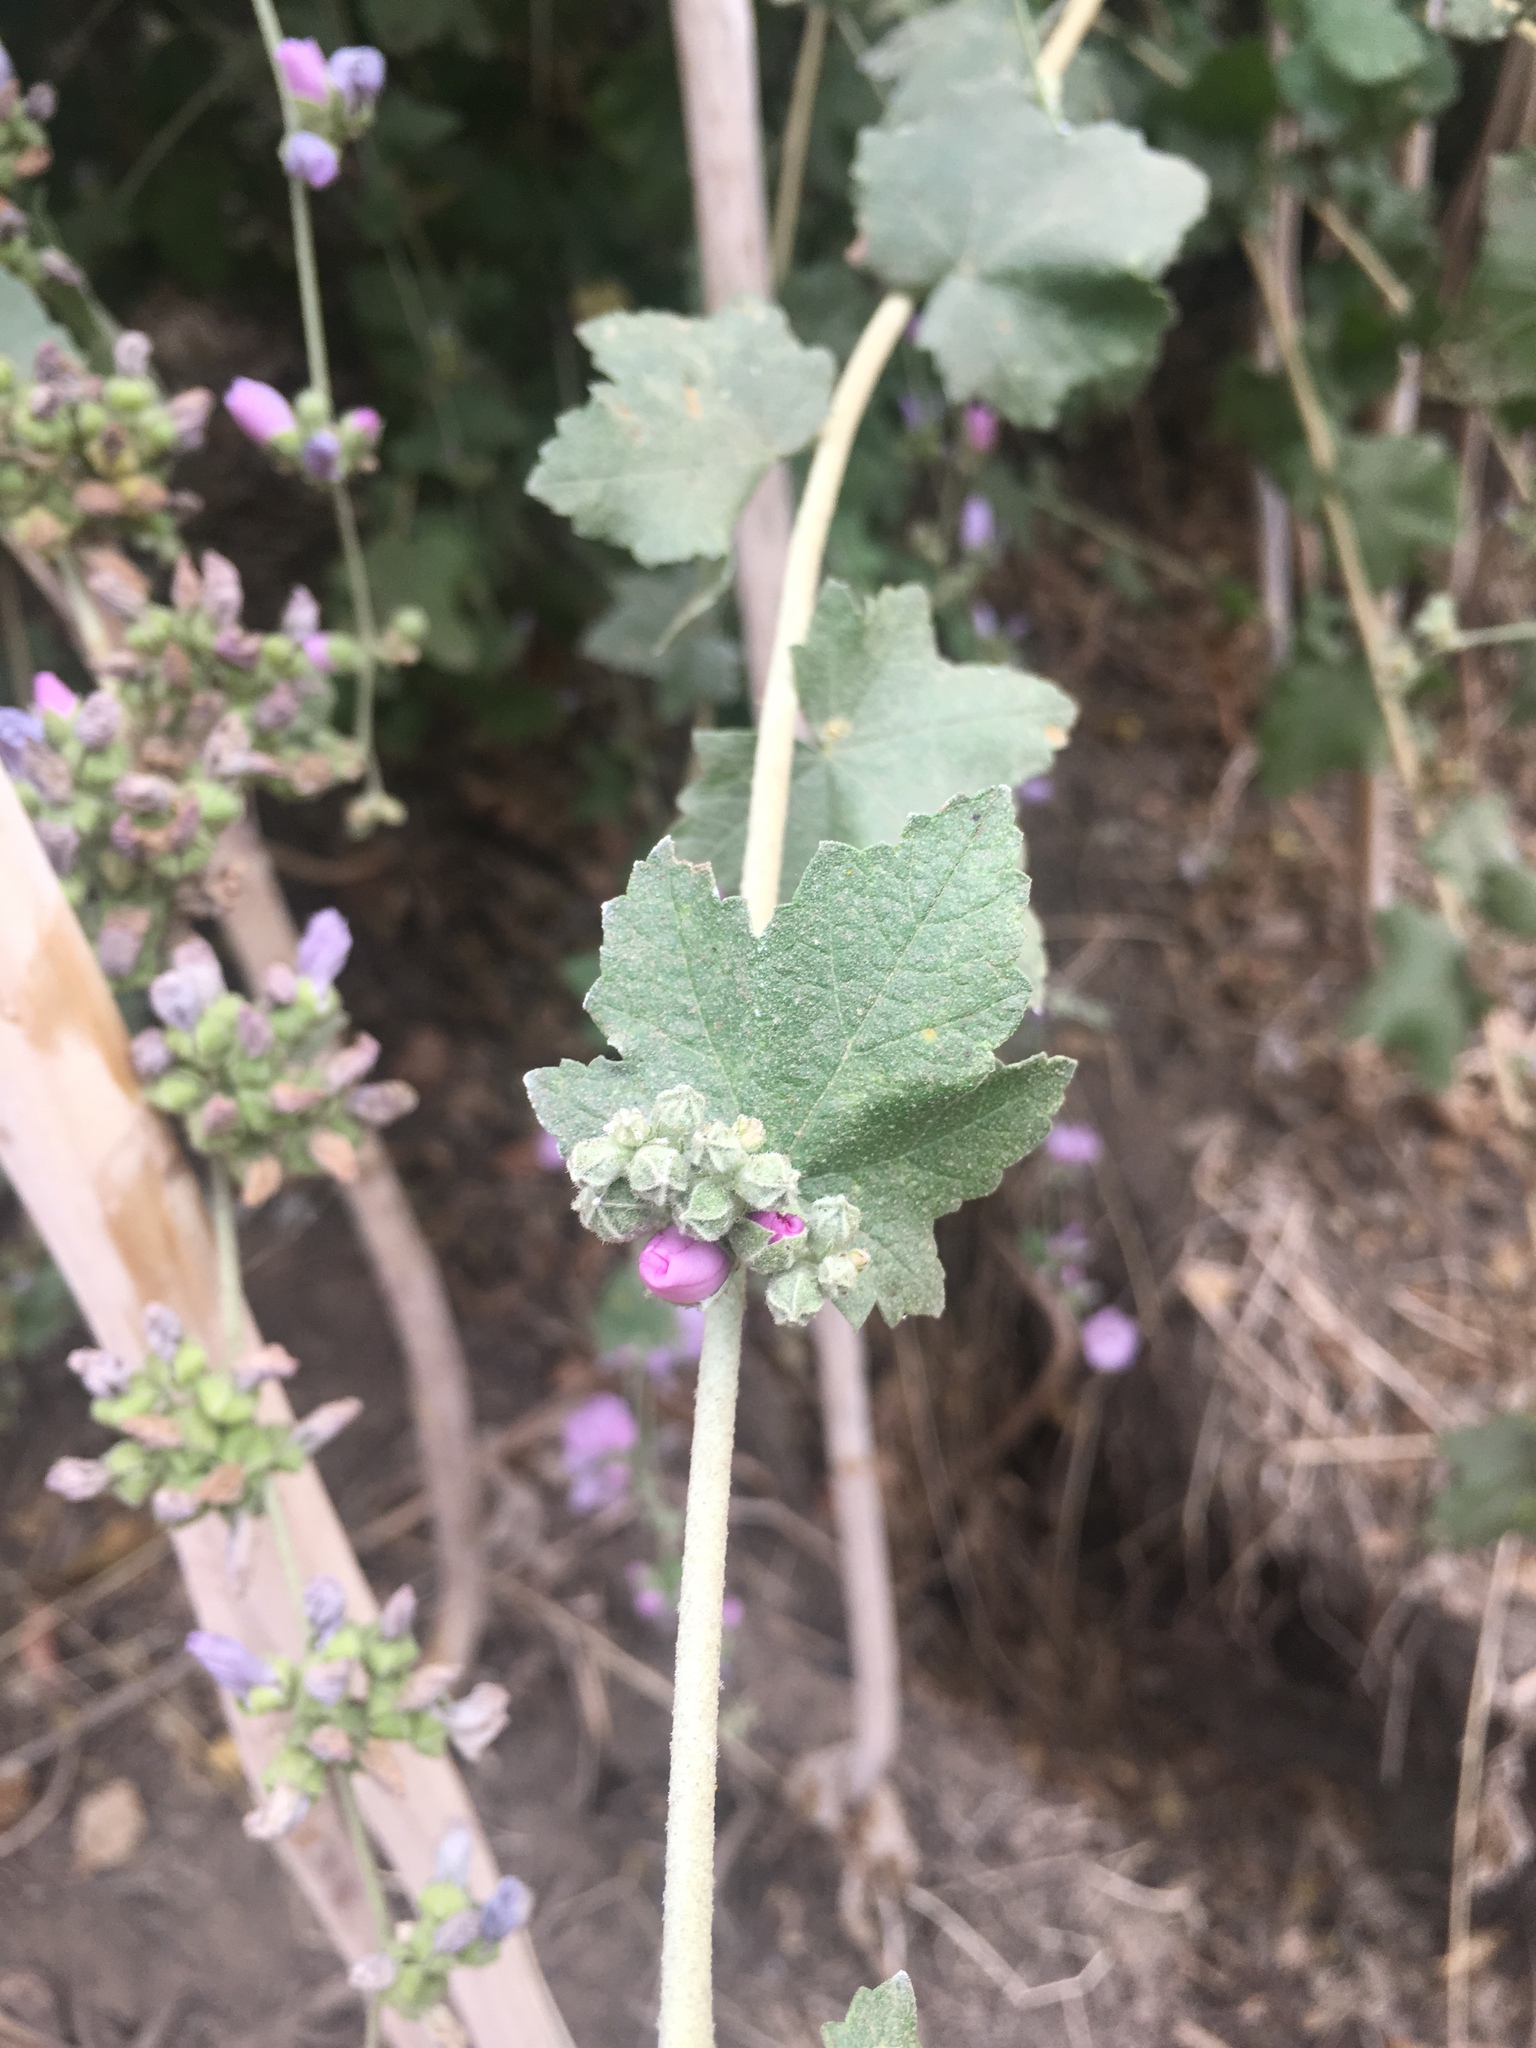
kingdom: Plantae
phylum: Tracheophyta
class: Magnoliopsida
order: Malvales
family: Malvaceae
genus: Malacothamnus
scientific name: Malacothamnus fasciculatus
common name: Sant cruz island bush-mallow
